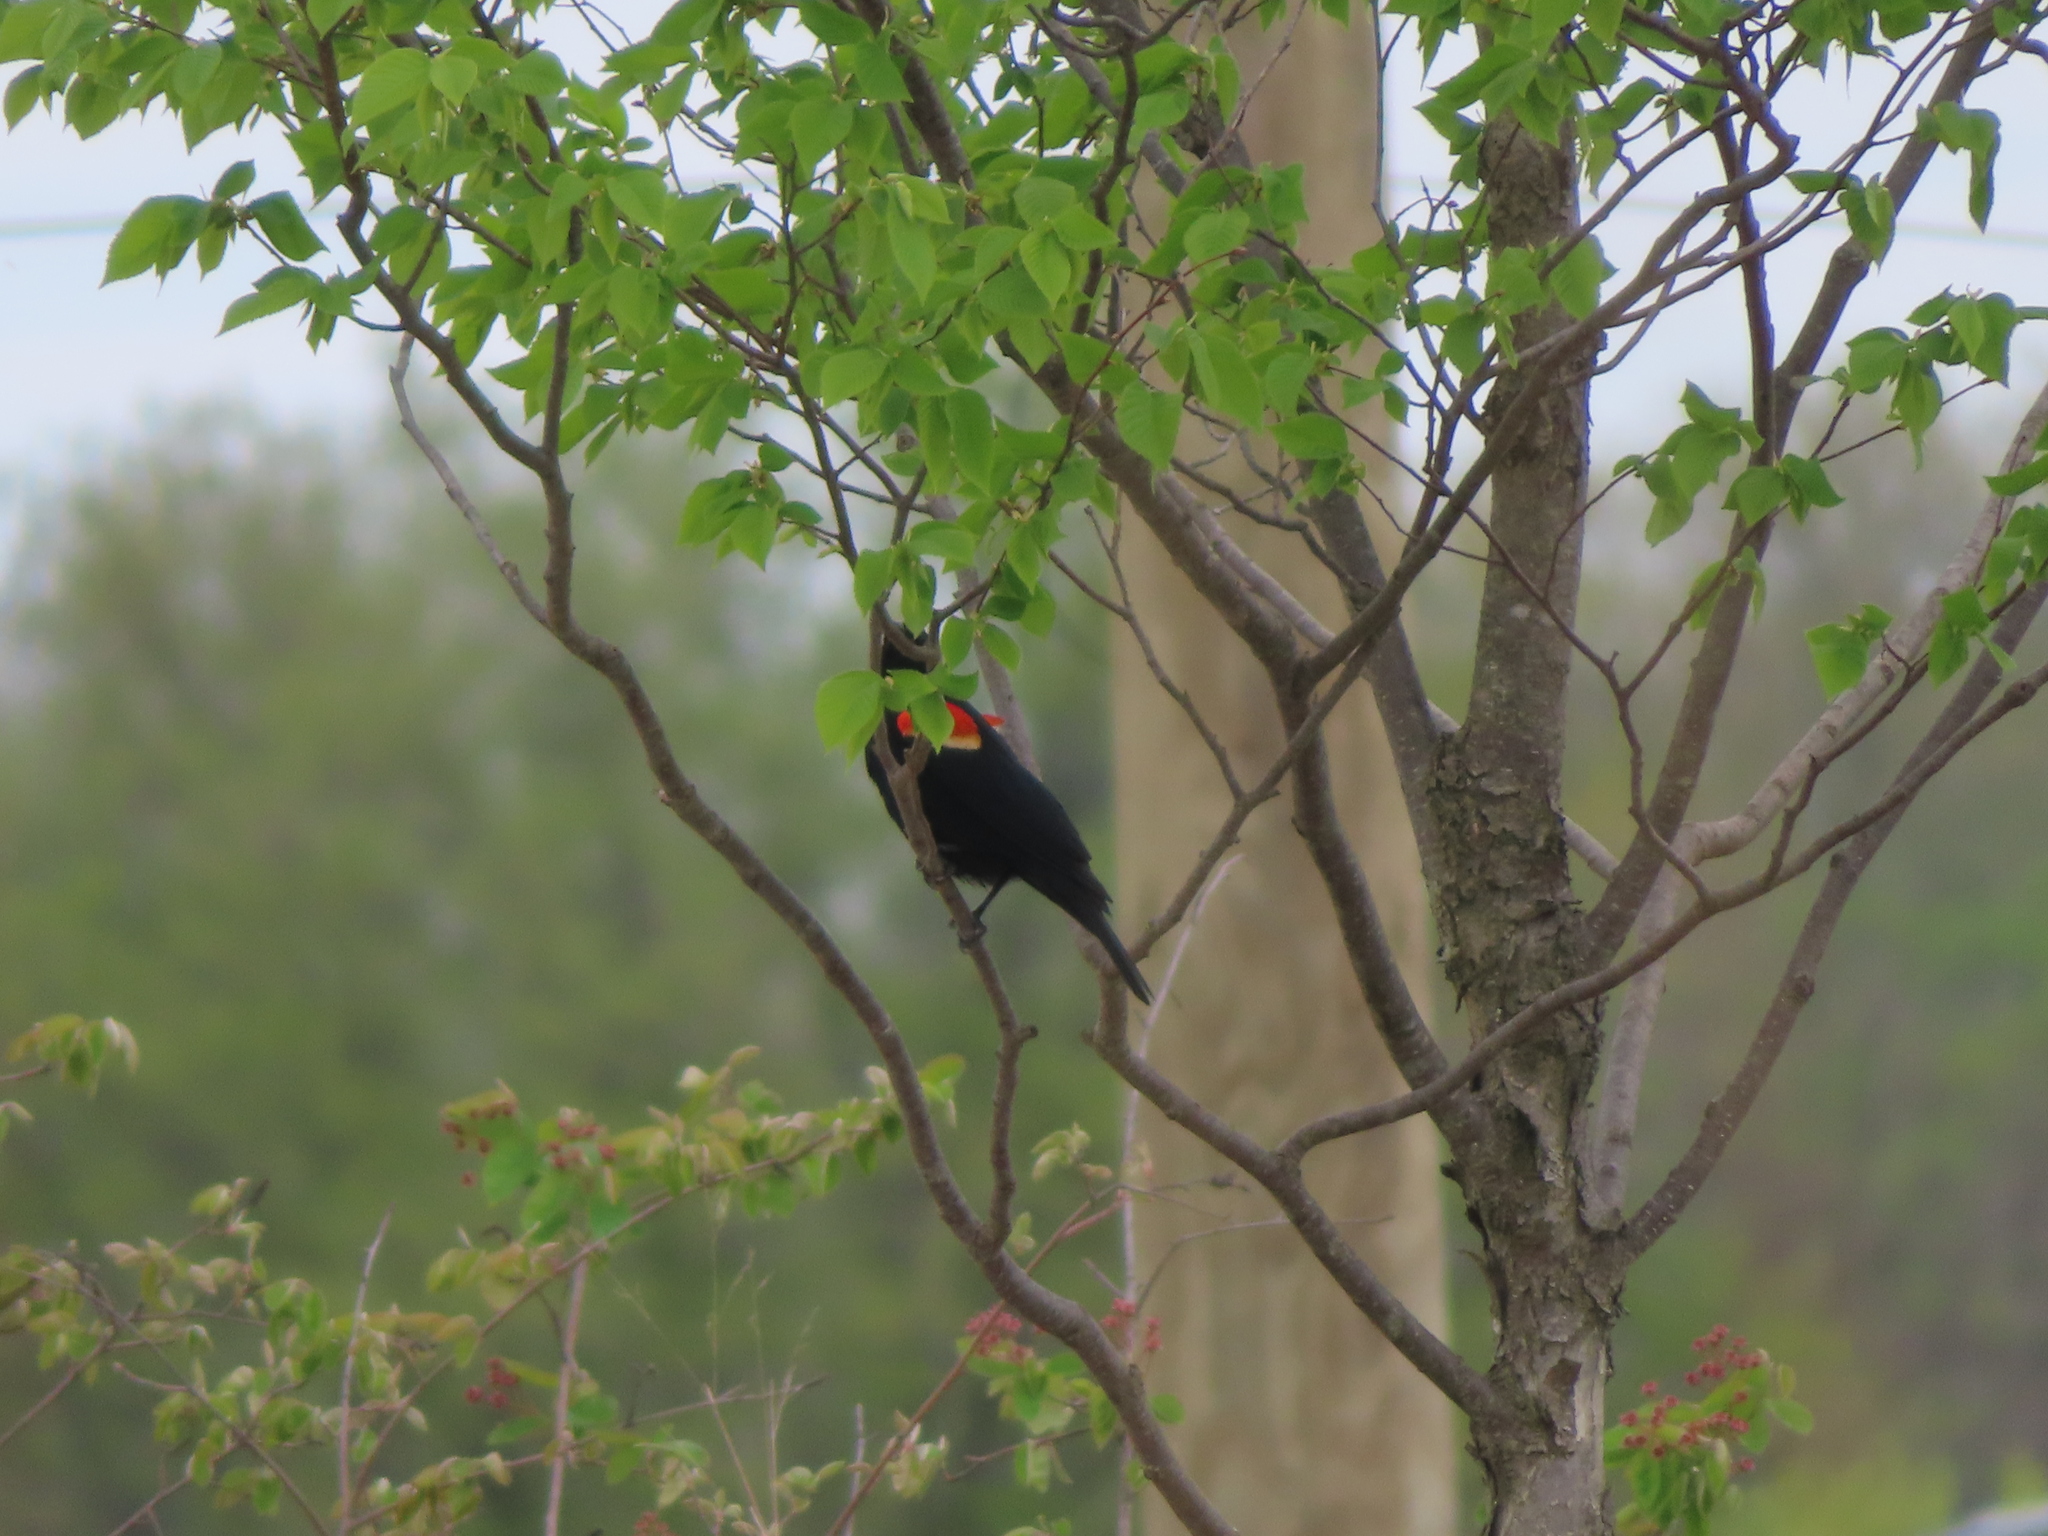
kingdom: Animalia
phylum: Chordata
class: Aves
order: Passeriformes
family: Icteridae
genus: Agelaius
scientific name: Agelaius phoeniceus
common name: Red-winged blackbird
